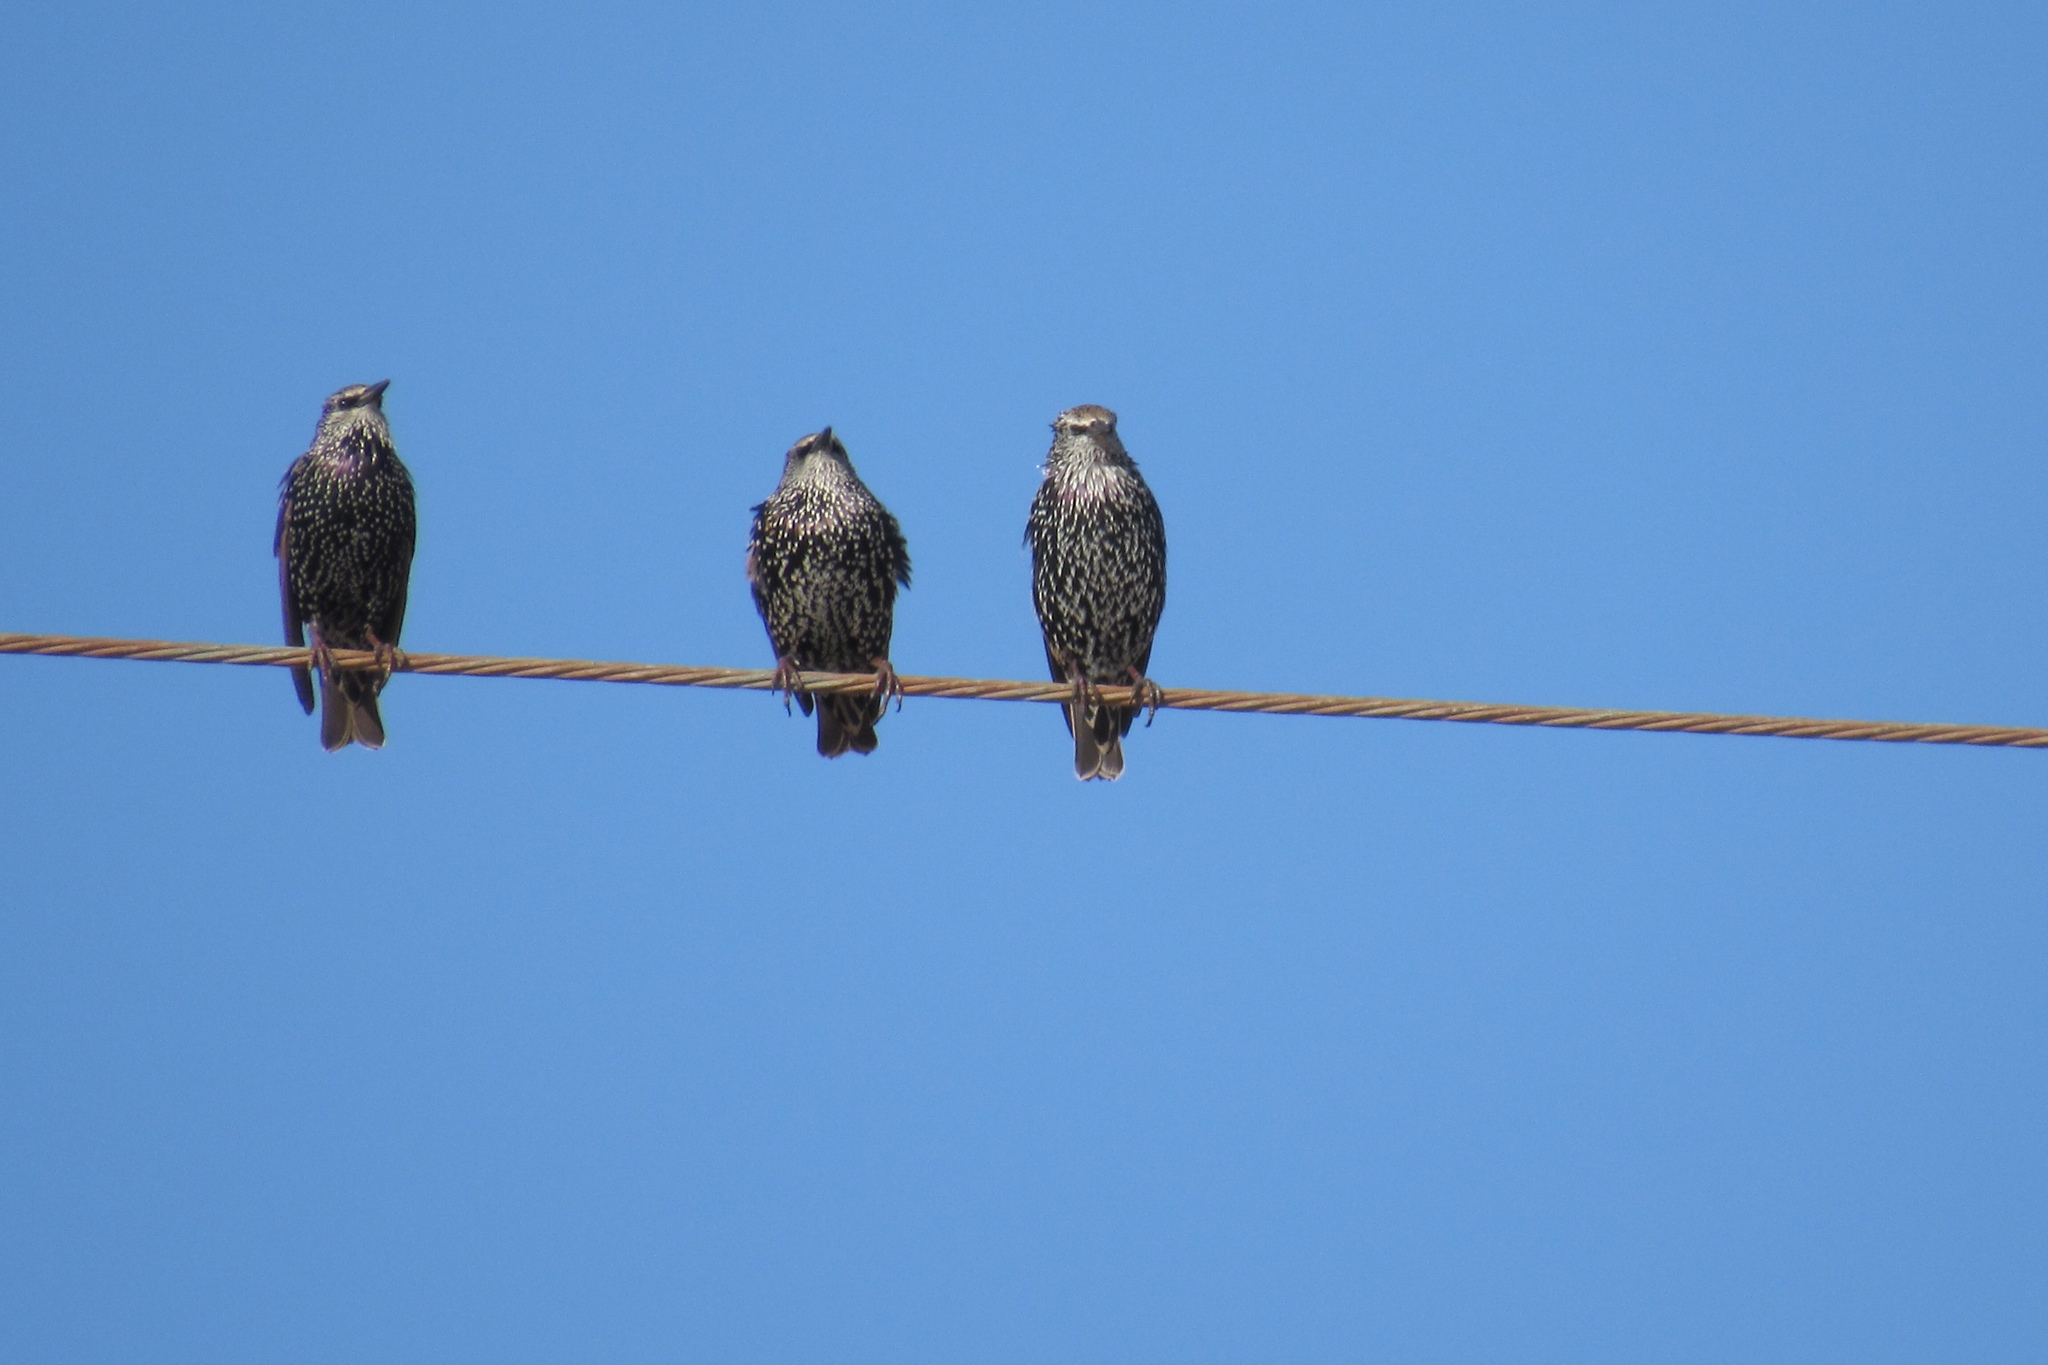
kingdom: Animalia
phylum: Chordata
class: Aves
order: Passeriformes
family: Sturnidae
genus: Sturnus
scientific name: Sturnus vulgaris
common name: Common starling
